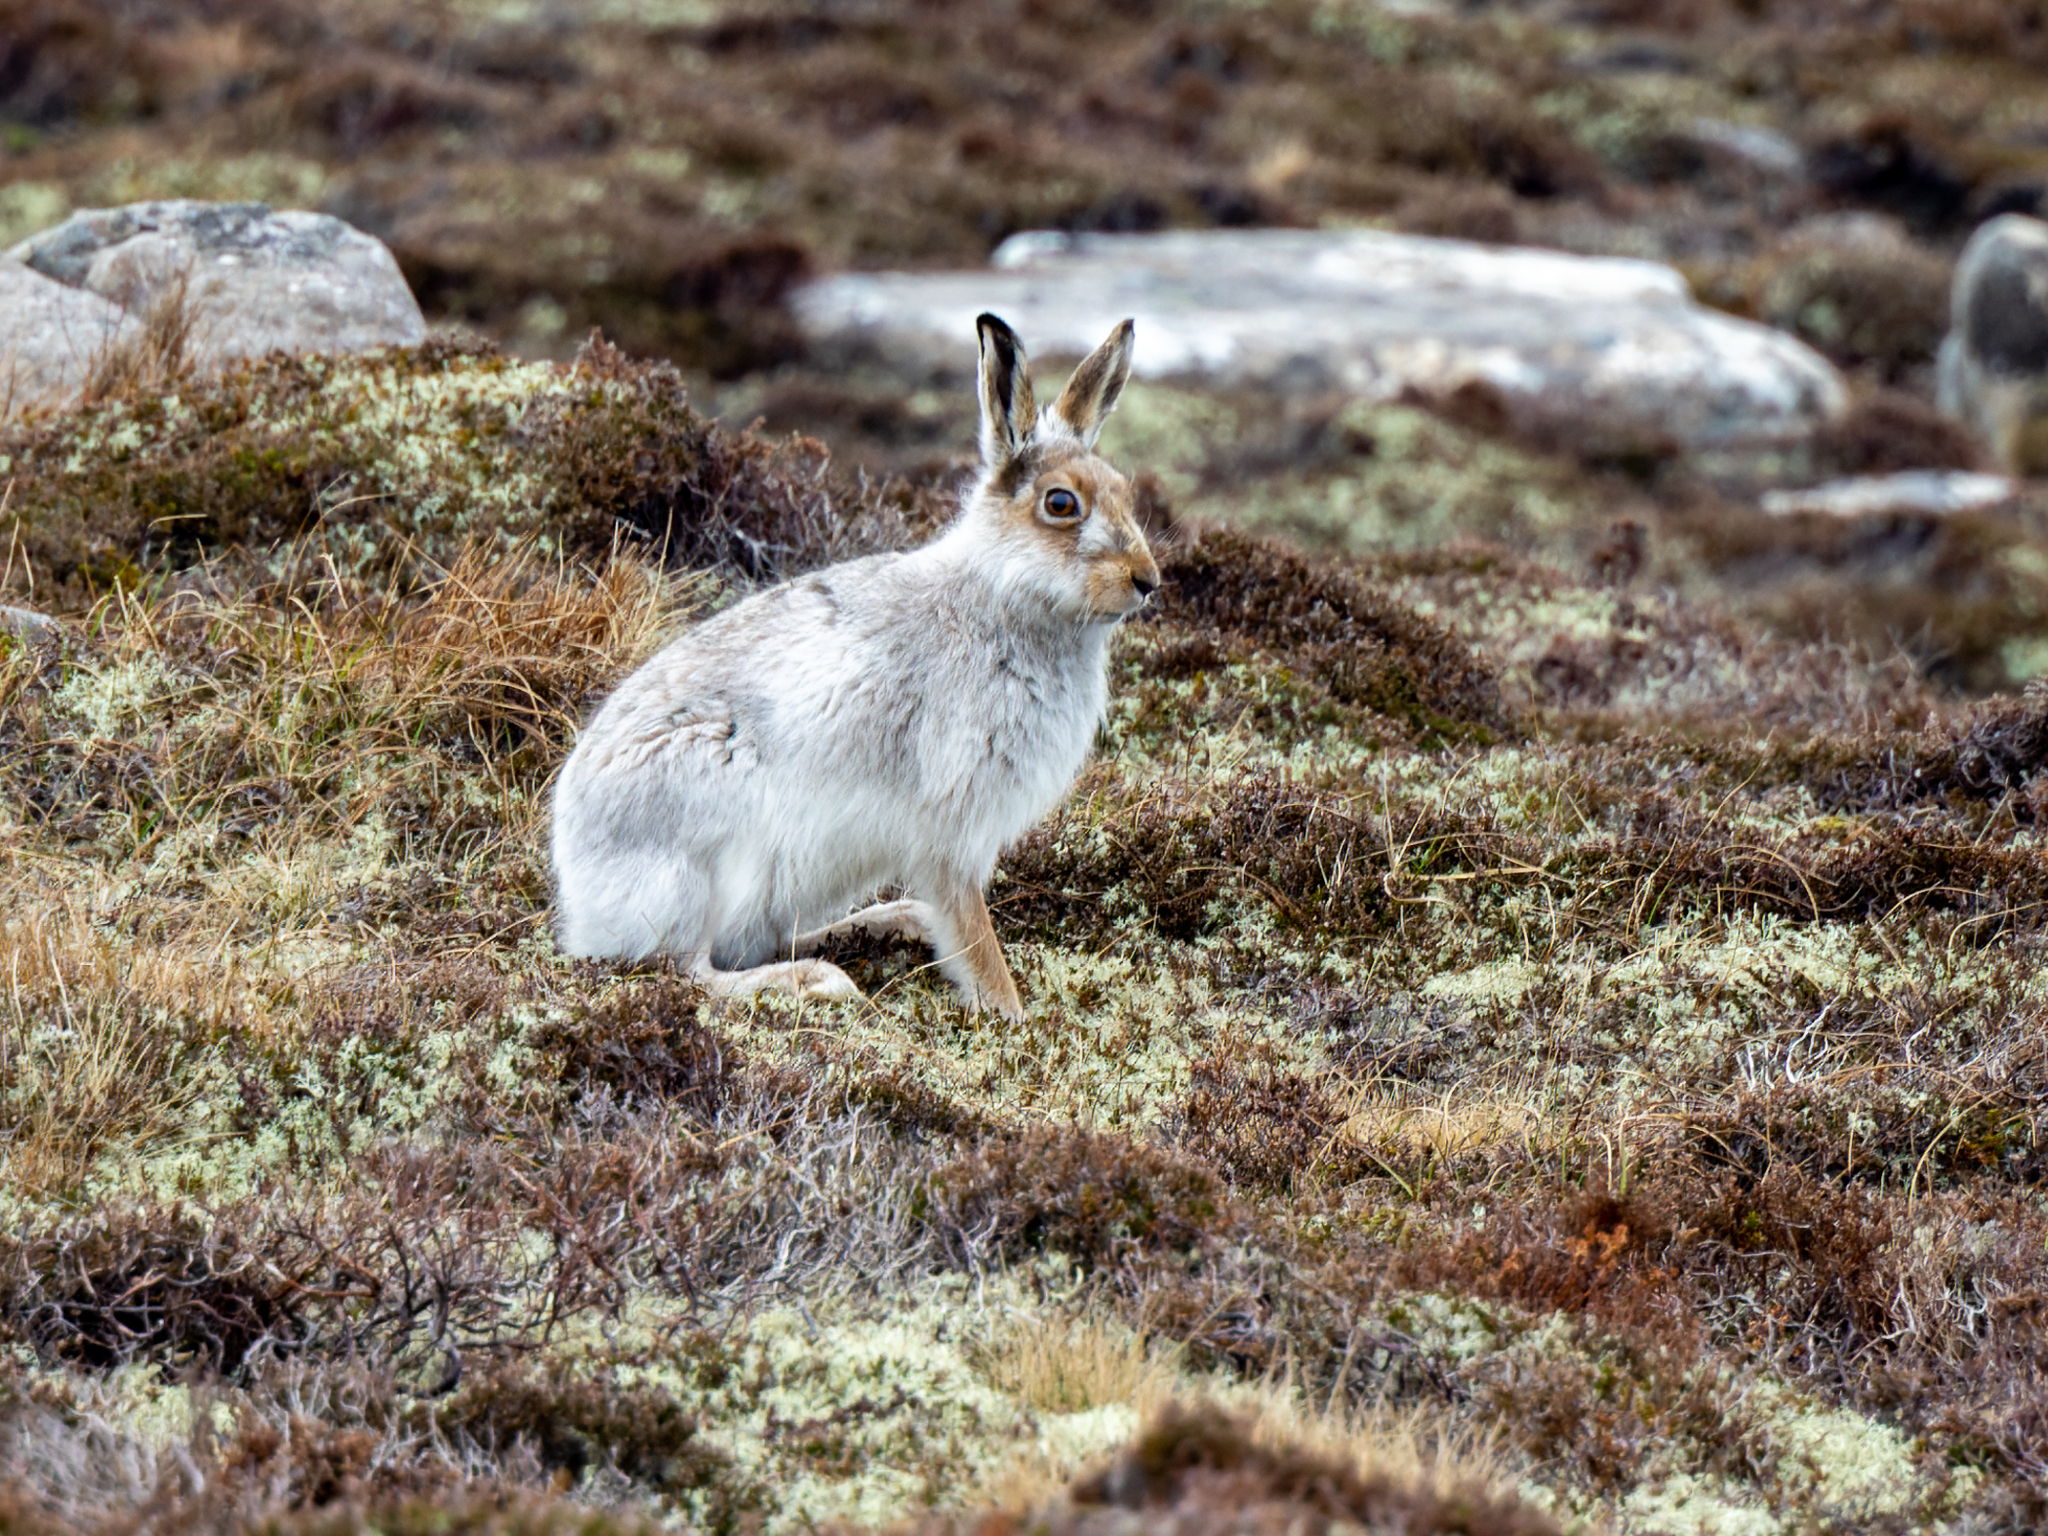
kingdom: Animalia
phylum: Chordata
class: Mammalia
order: Lagomorpha
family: Leporidae
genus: Lepus
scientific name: Lepus timidus
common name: Mountain hare
